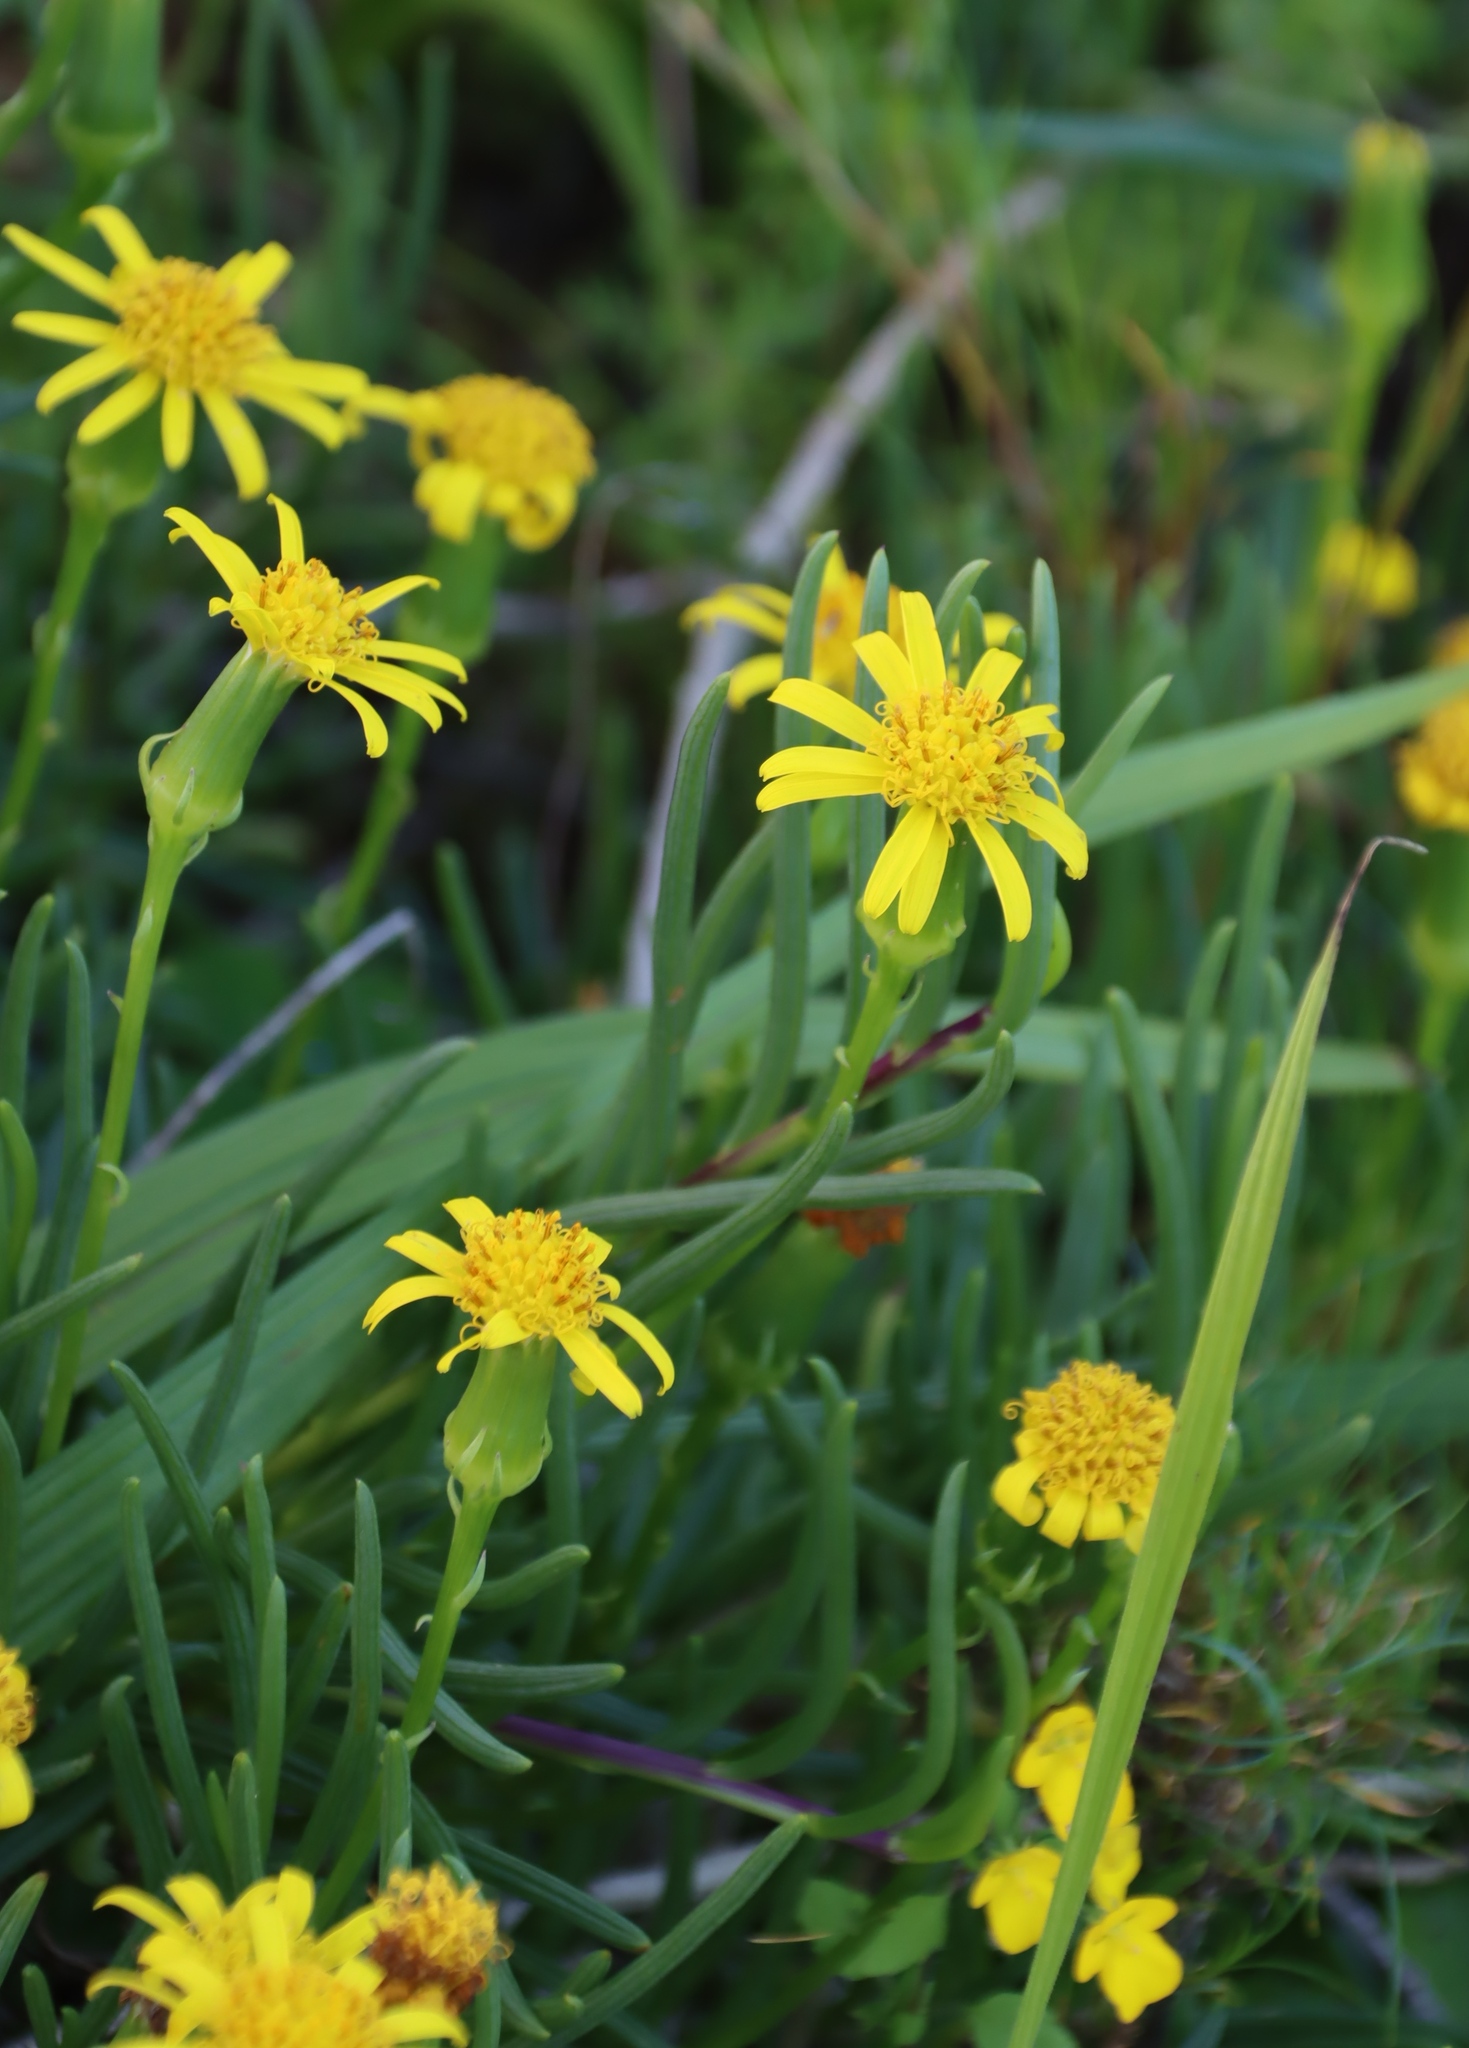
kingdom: Plantae
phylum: Tracheophyta
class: Magnoliopsida
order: Asterales
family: Asteraceae
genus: Senecio
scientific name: Senecio alooides
